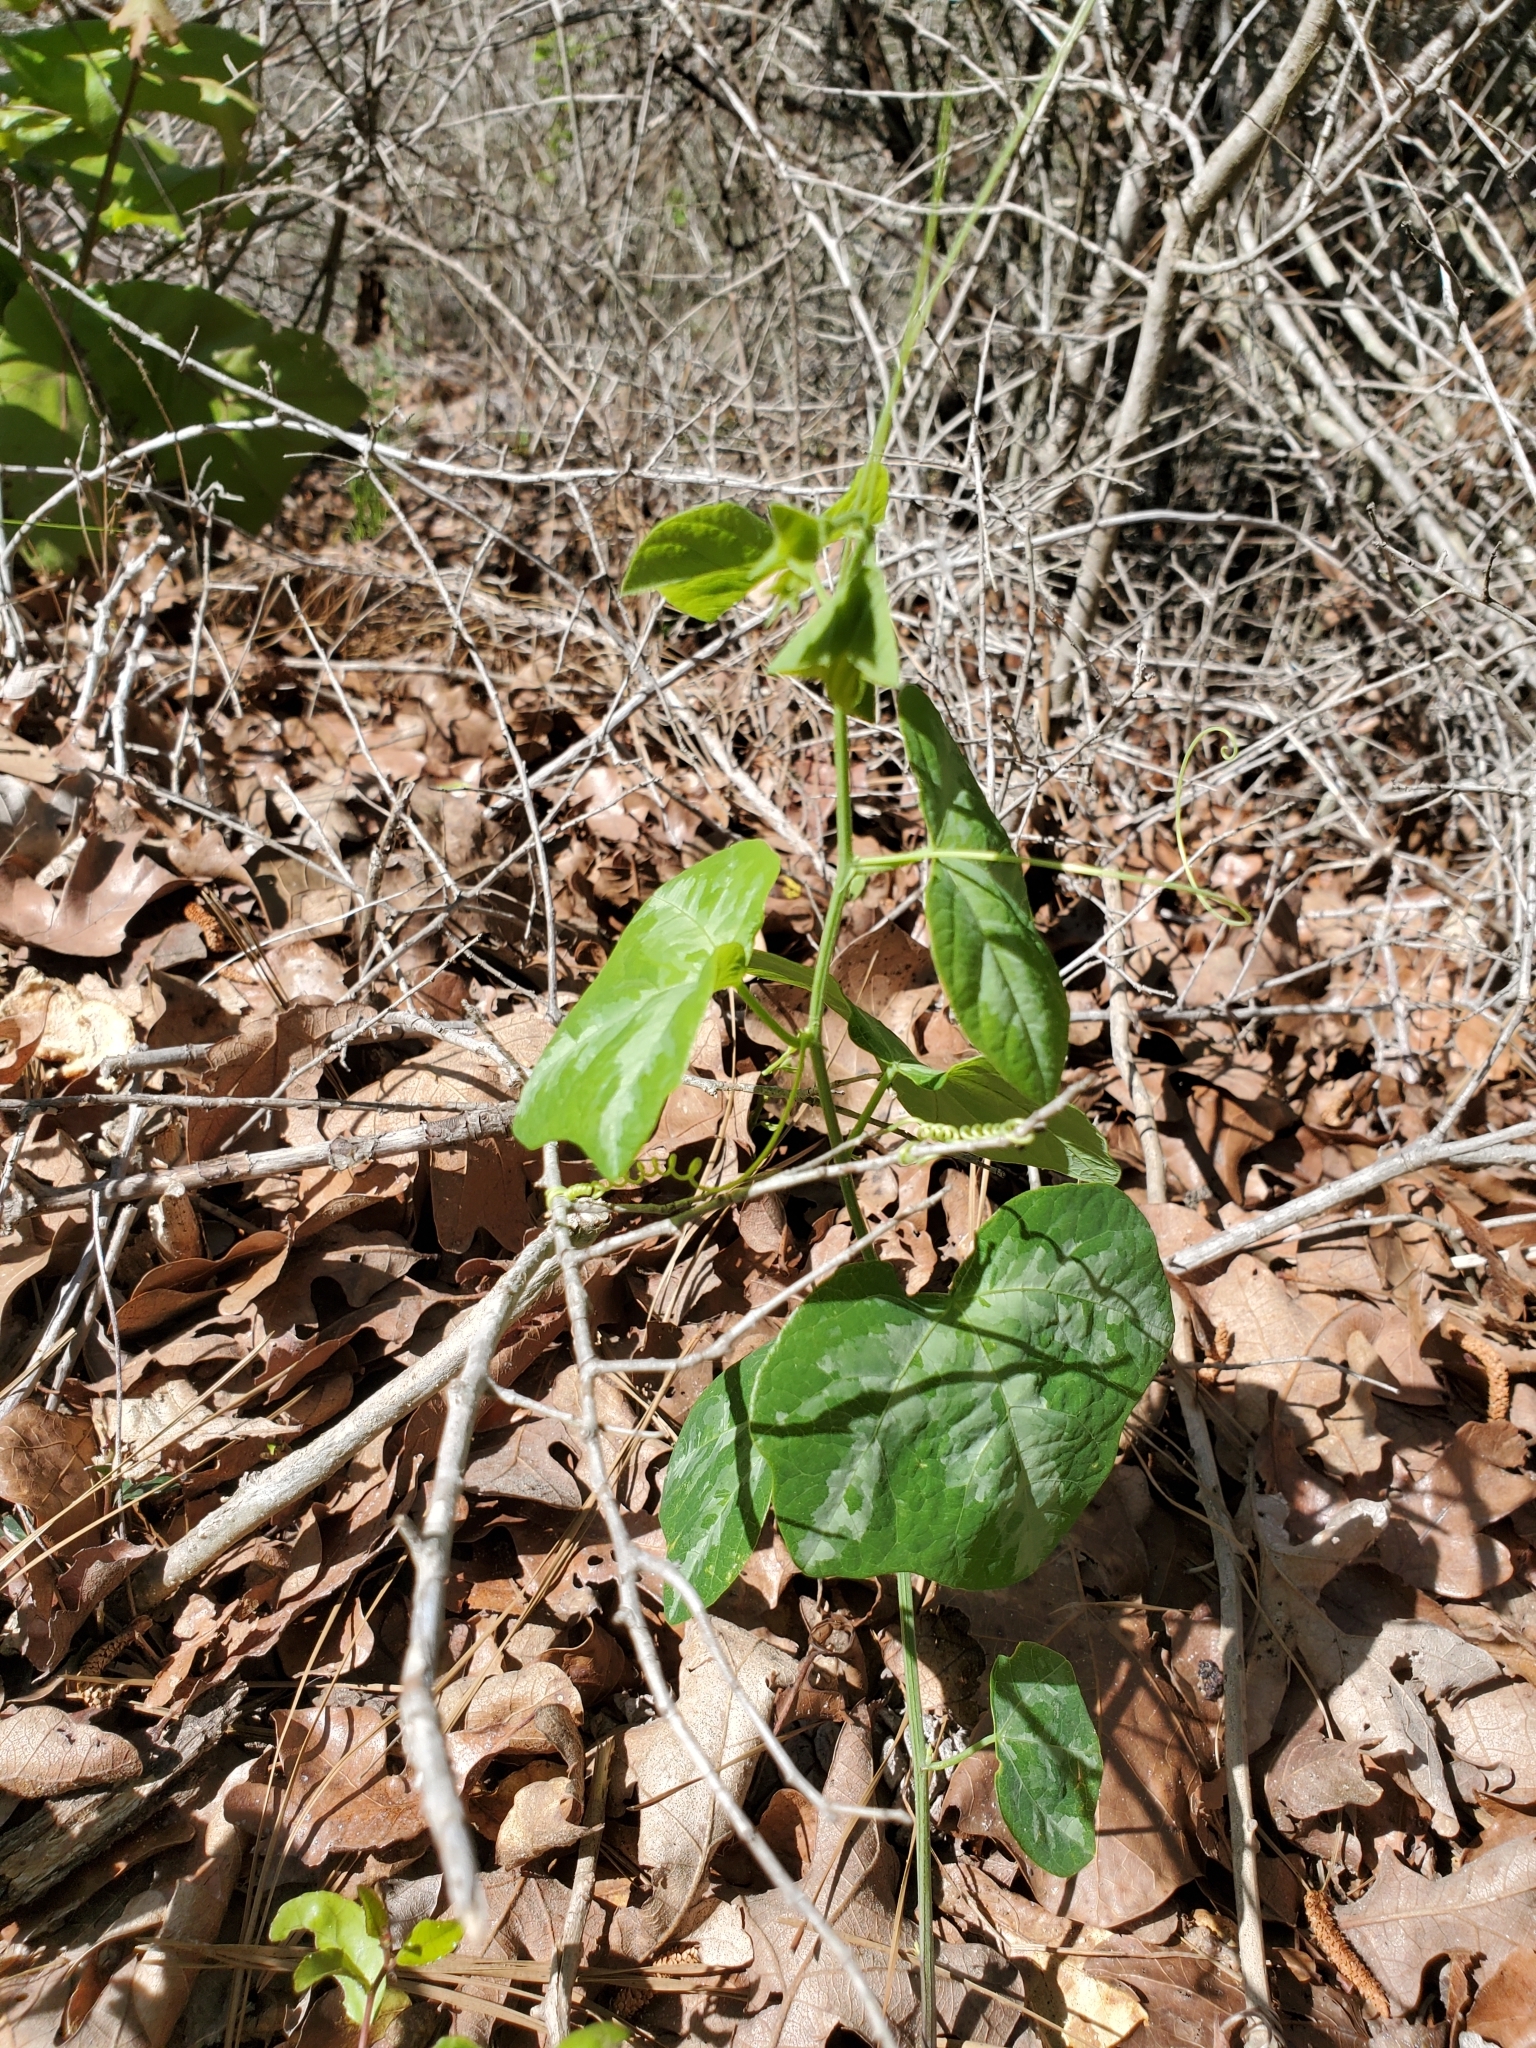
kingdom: Plantae
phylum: Tracheophyta
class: Magnoliopsida
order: Malpighiales
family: Passifloraceae
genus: Passiflora
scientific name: Passiflora lutea
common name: Yellow passionflower
